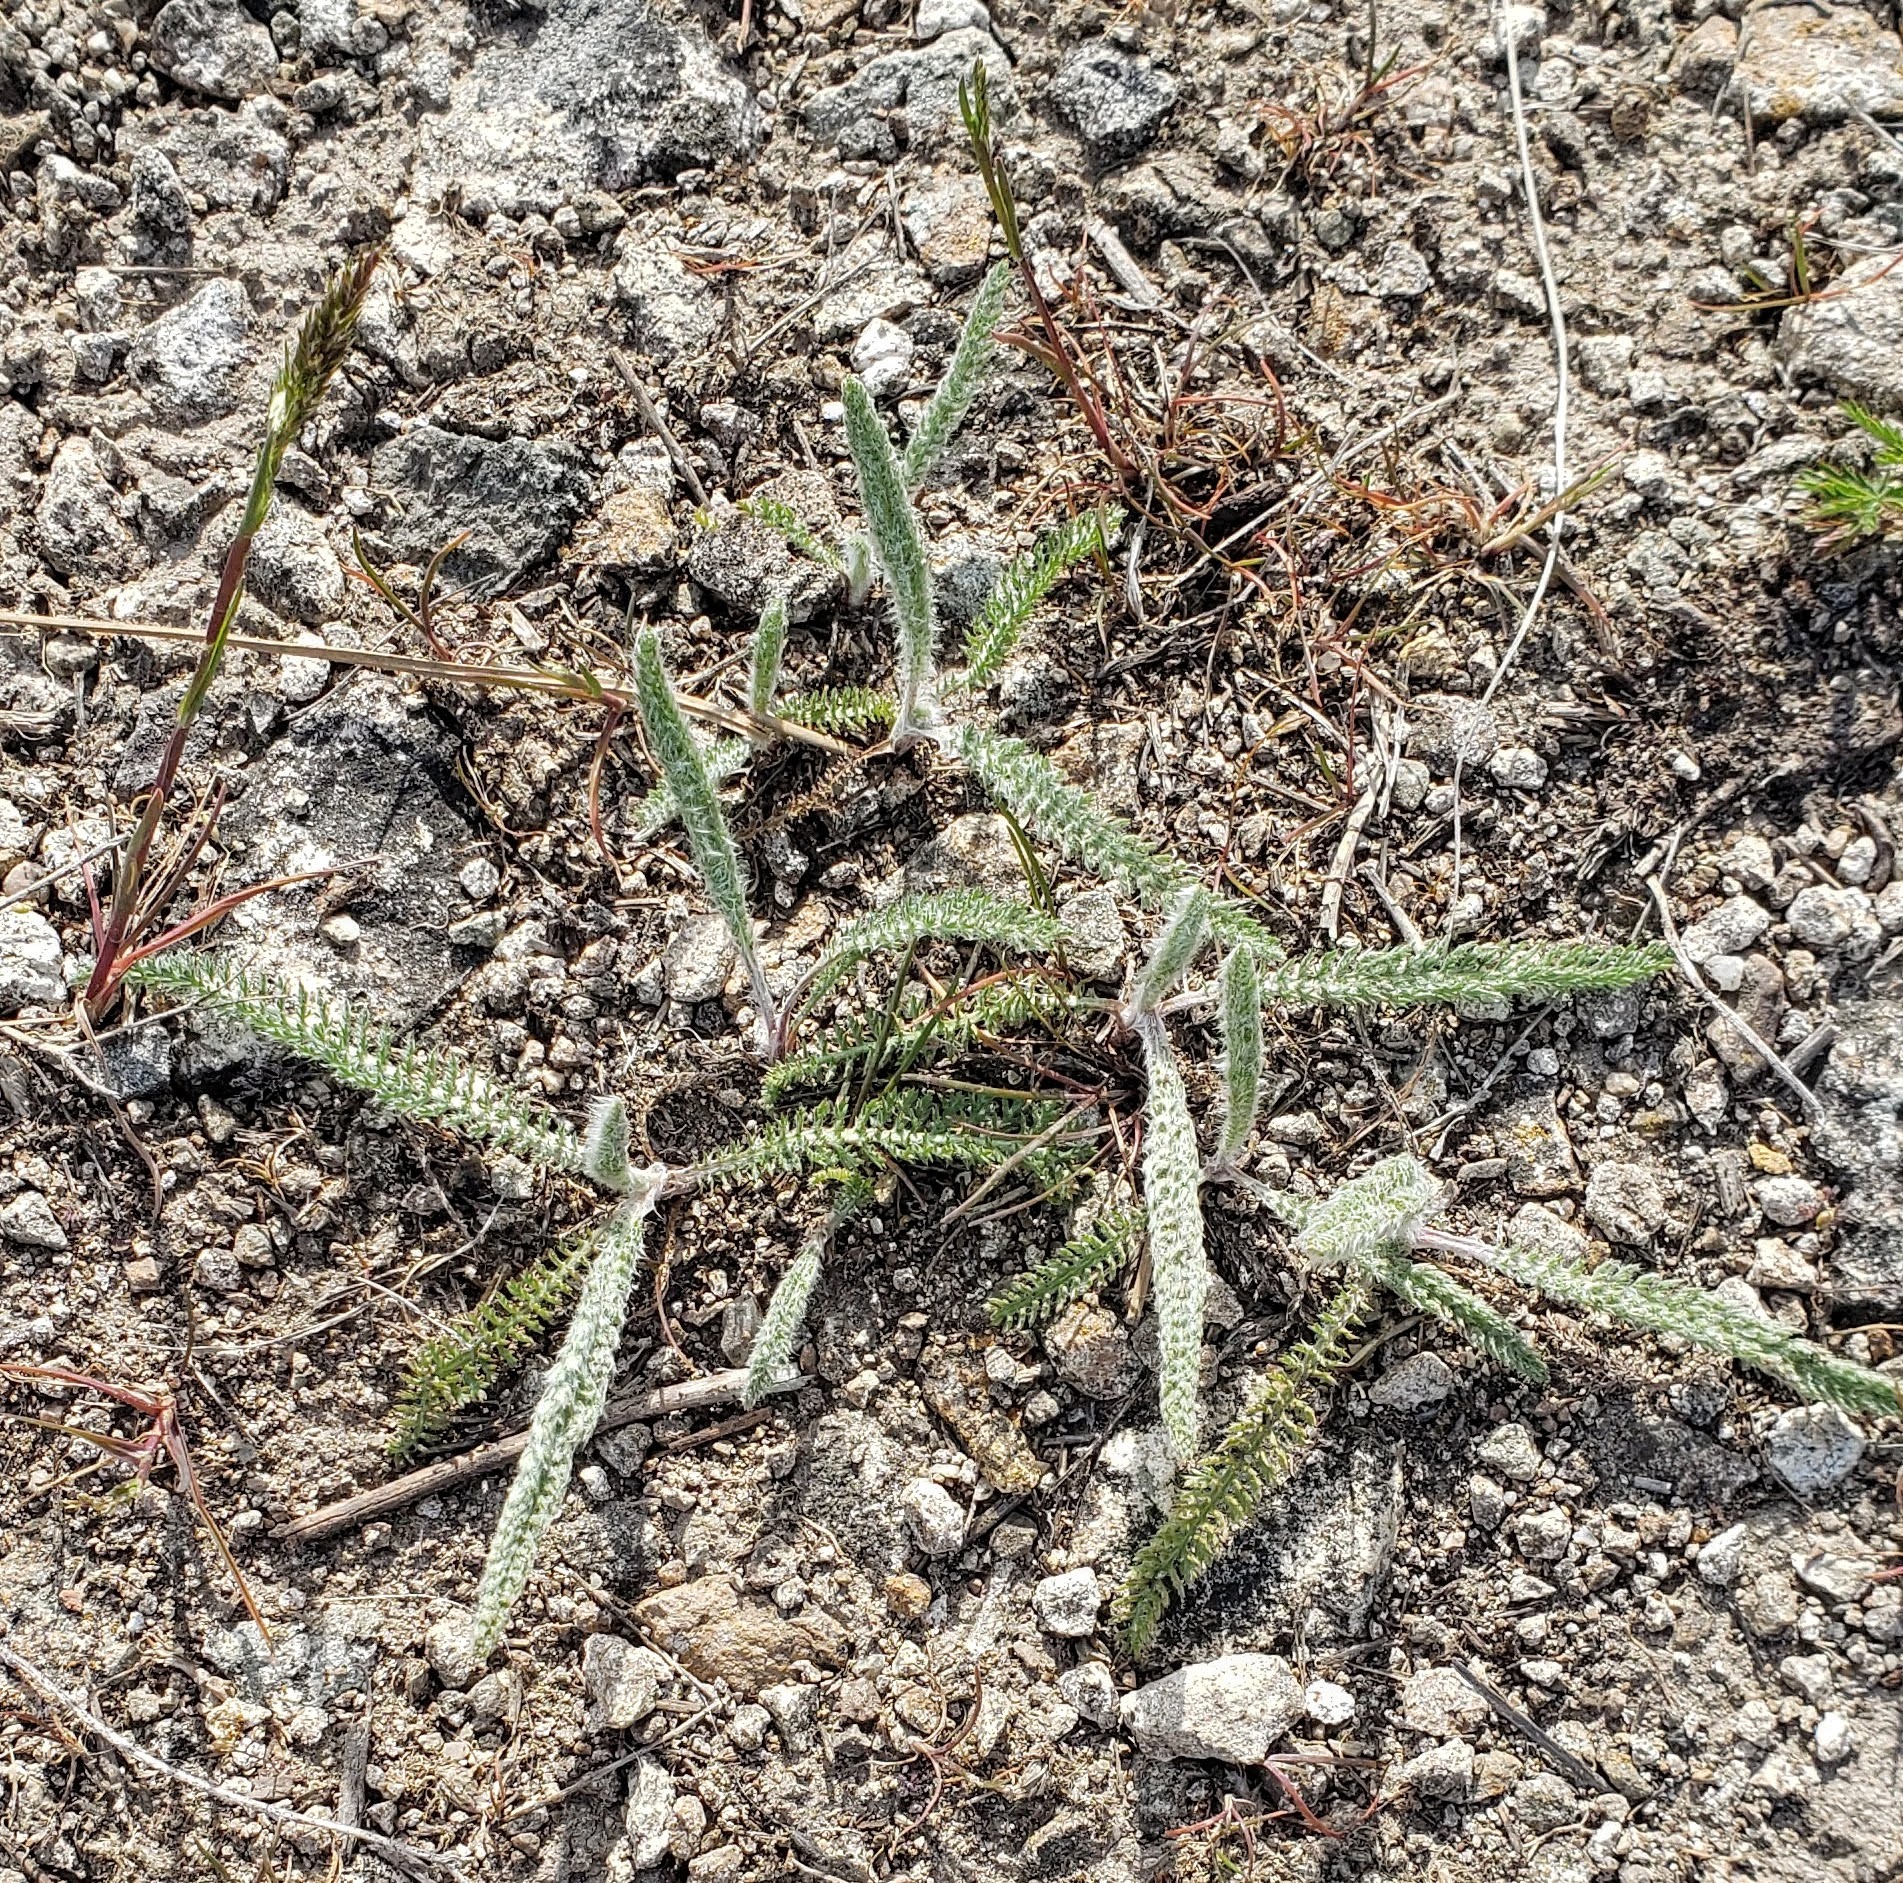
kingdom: Plantae
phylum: Tracheophyta
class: Magnoliopsida
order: Asterales
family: Asteraceae
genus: Achillea
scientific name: Achillea millefolium
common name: Yarrow
